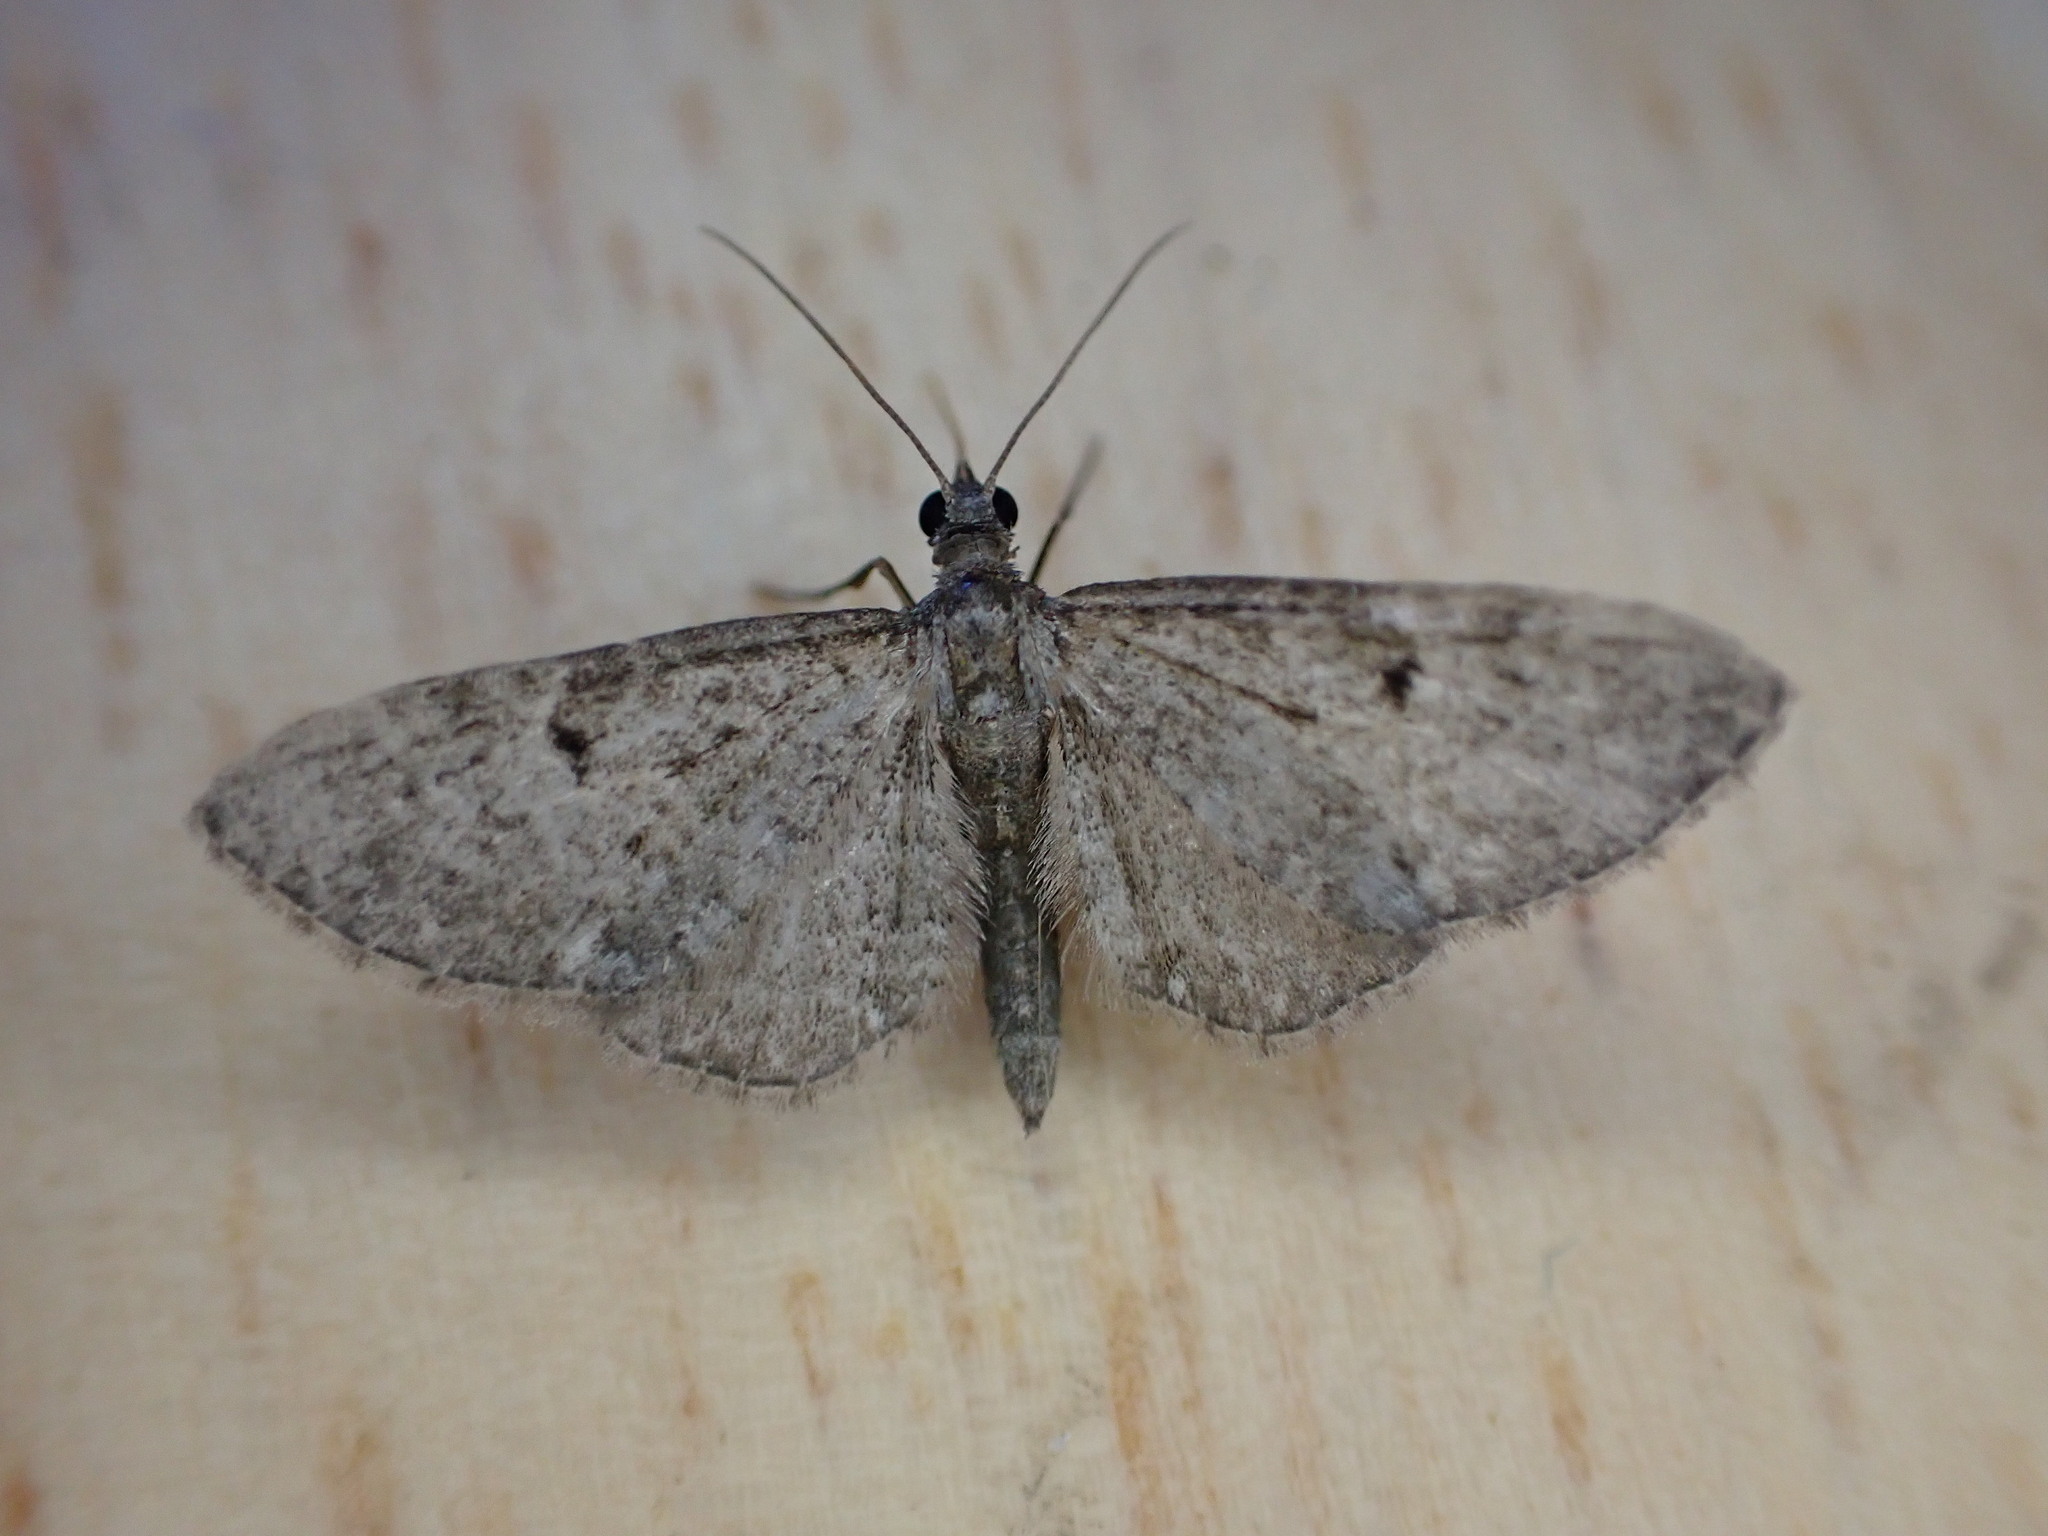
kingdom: Animalia
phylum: Arthropoda
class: Insecta
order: Lepidoptera
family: Geometridae
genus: Eupithecia
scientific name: Eupithecia virgaureata
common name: Golden-rod pug
